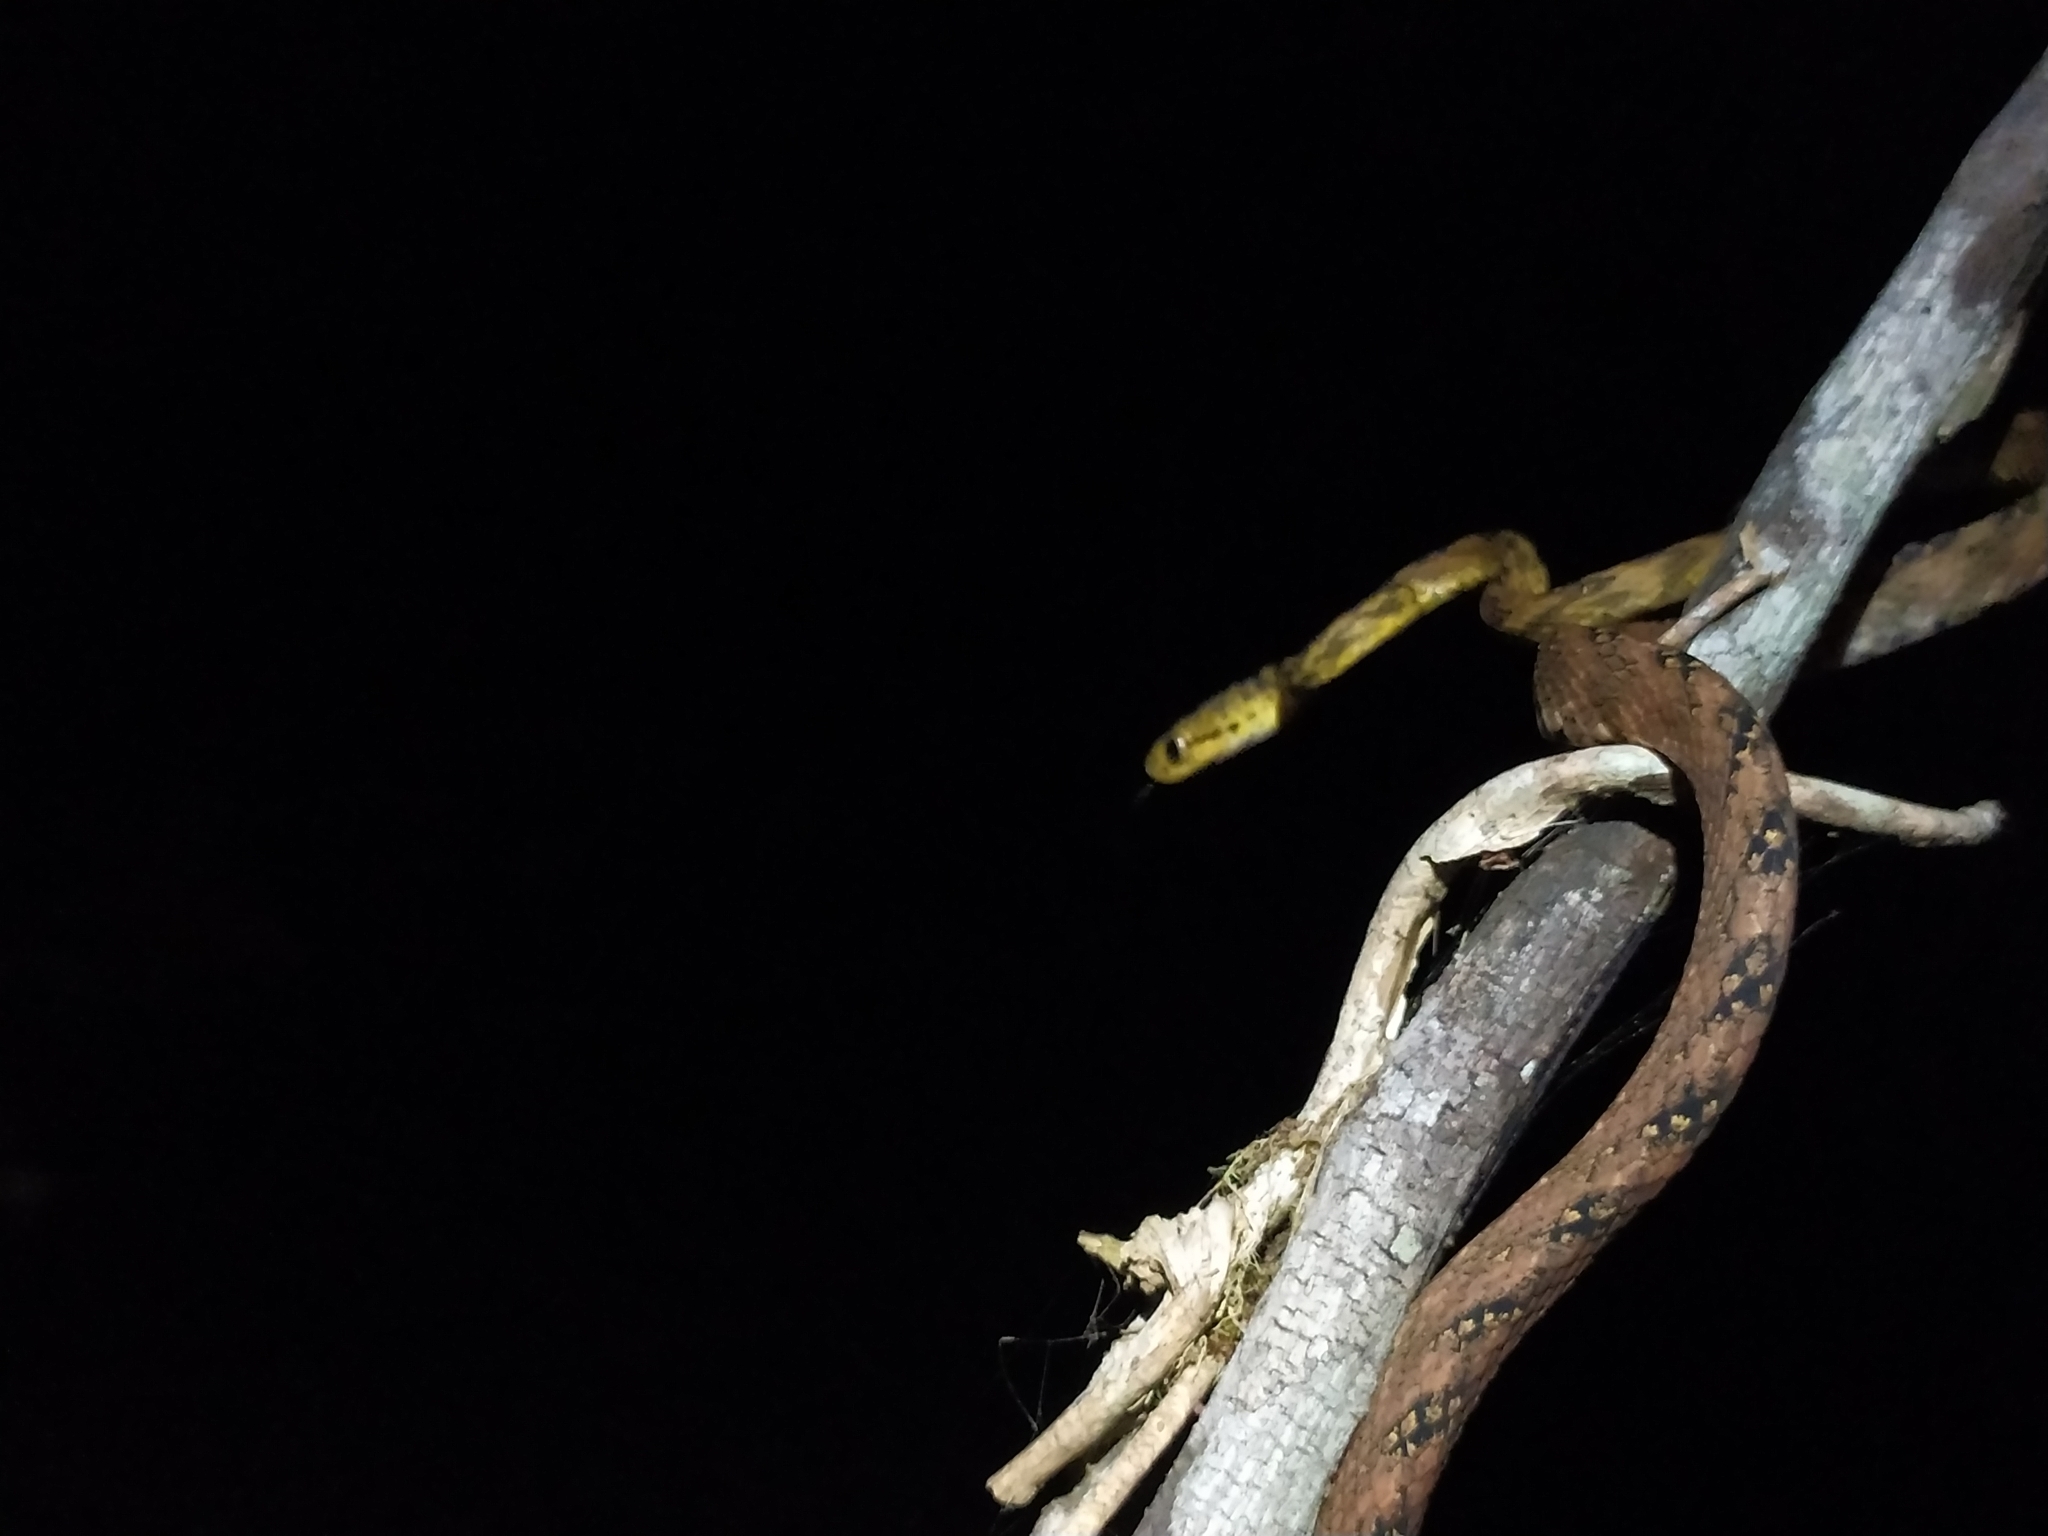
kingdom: Animalia
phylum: Chordata
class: Squamata
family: Colubridae
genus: Boiga
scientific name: Boiga thackerayi
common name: Thackeray’s cat snake
